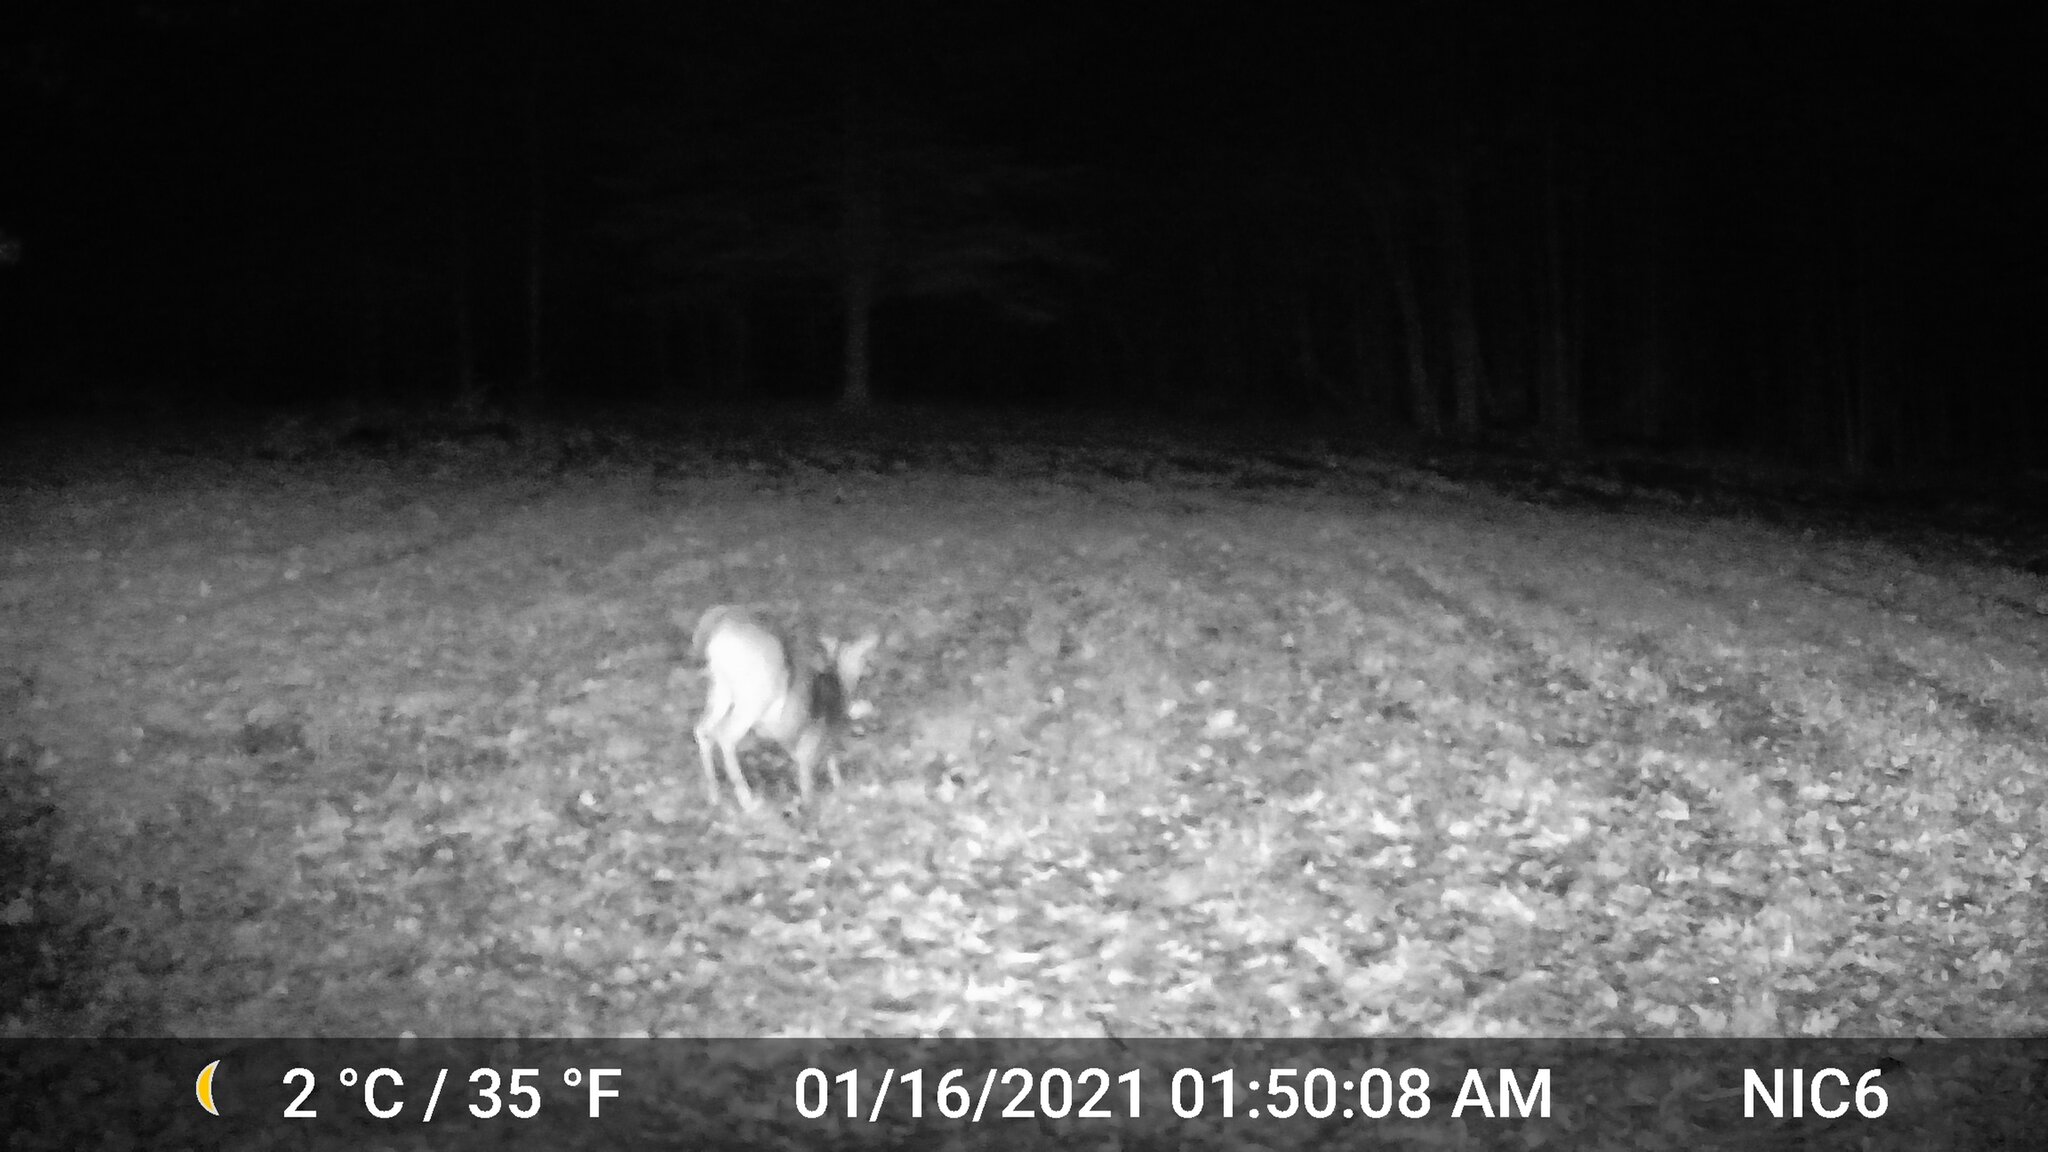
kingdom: Animalia
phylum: Chordata
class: Mammalia
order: Artiodactyla
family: Cervidae
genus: Odocoileus
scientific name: Odocoileus virginianus
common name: White-tailed deer
